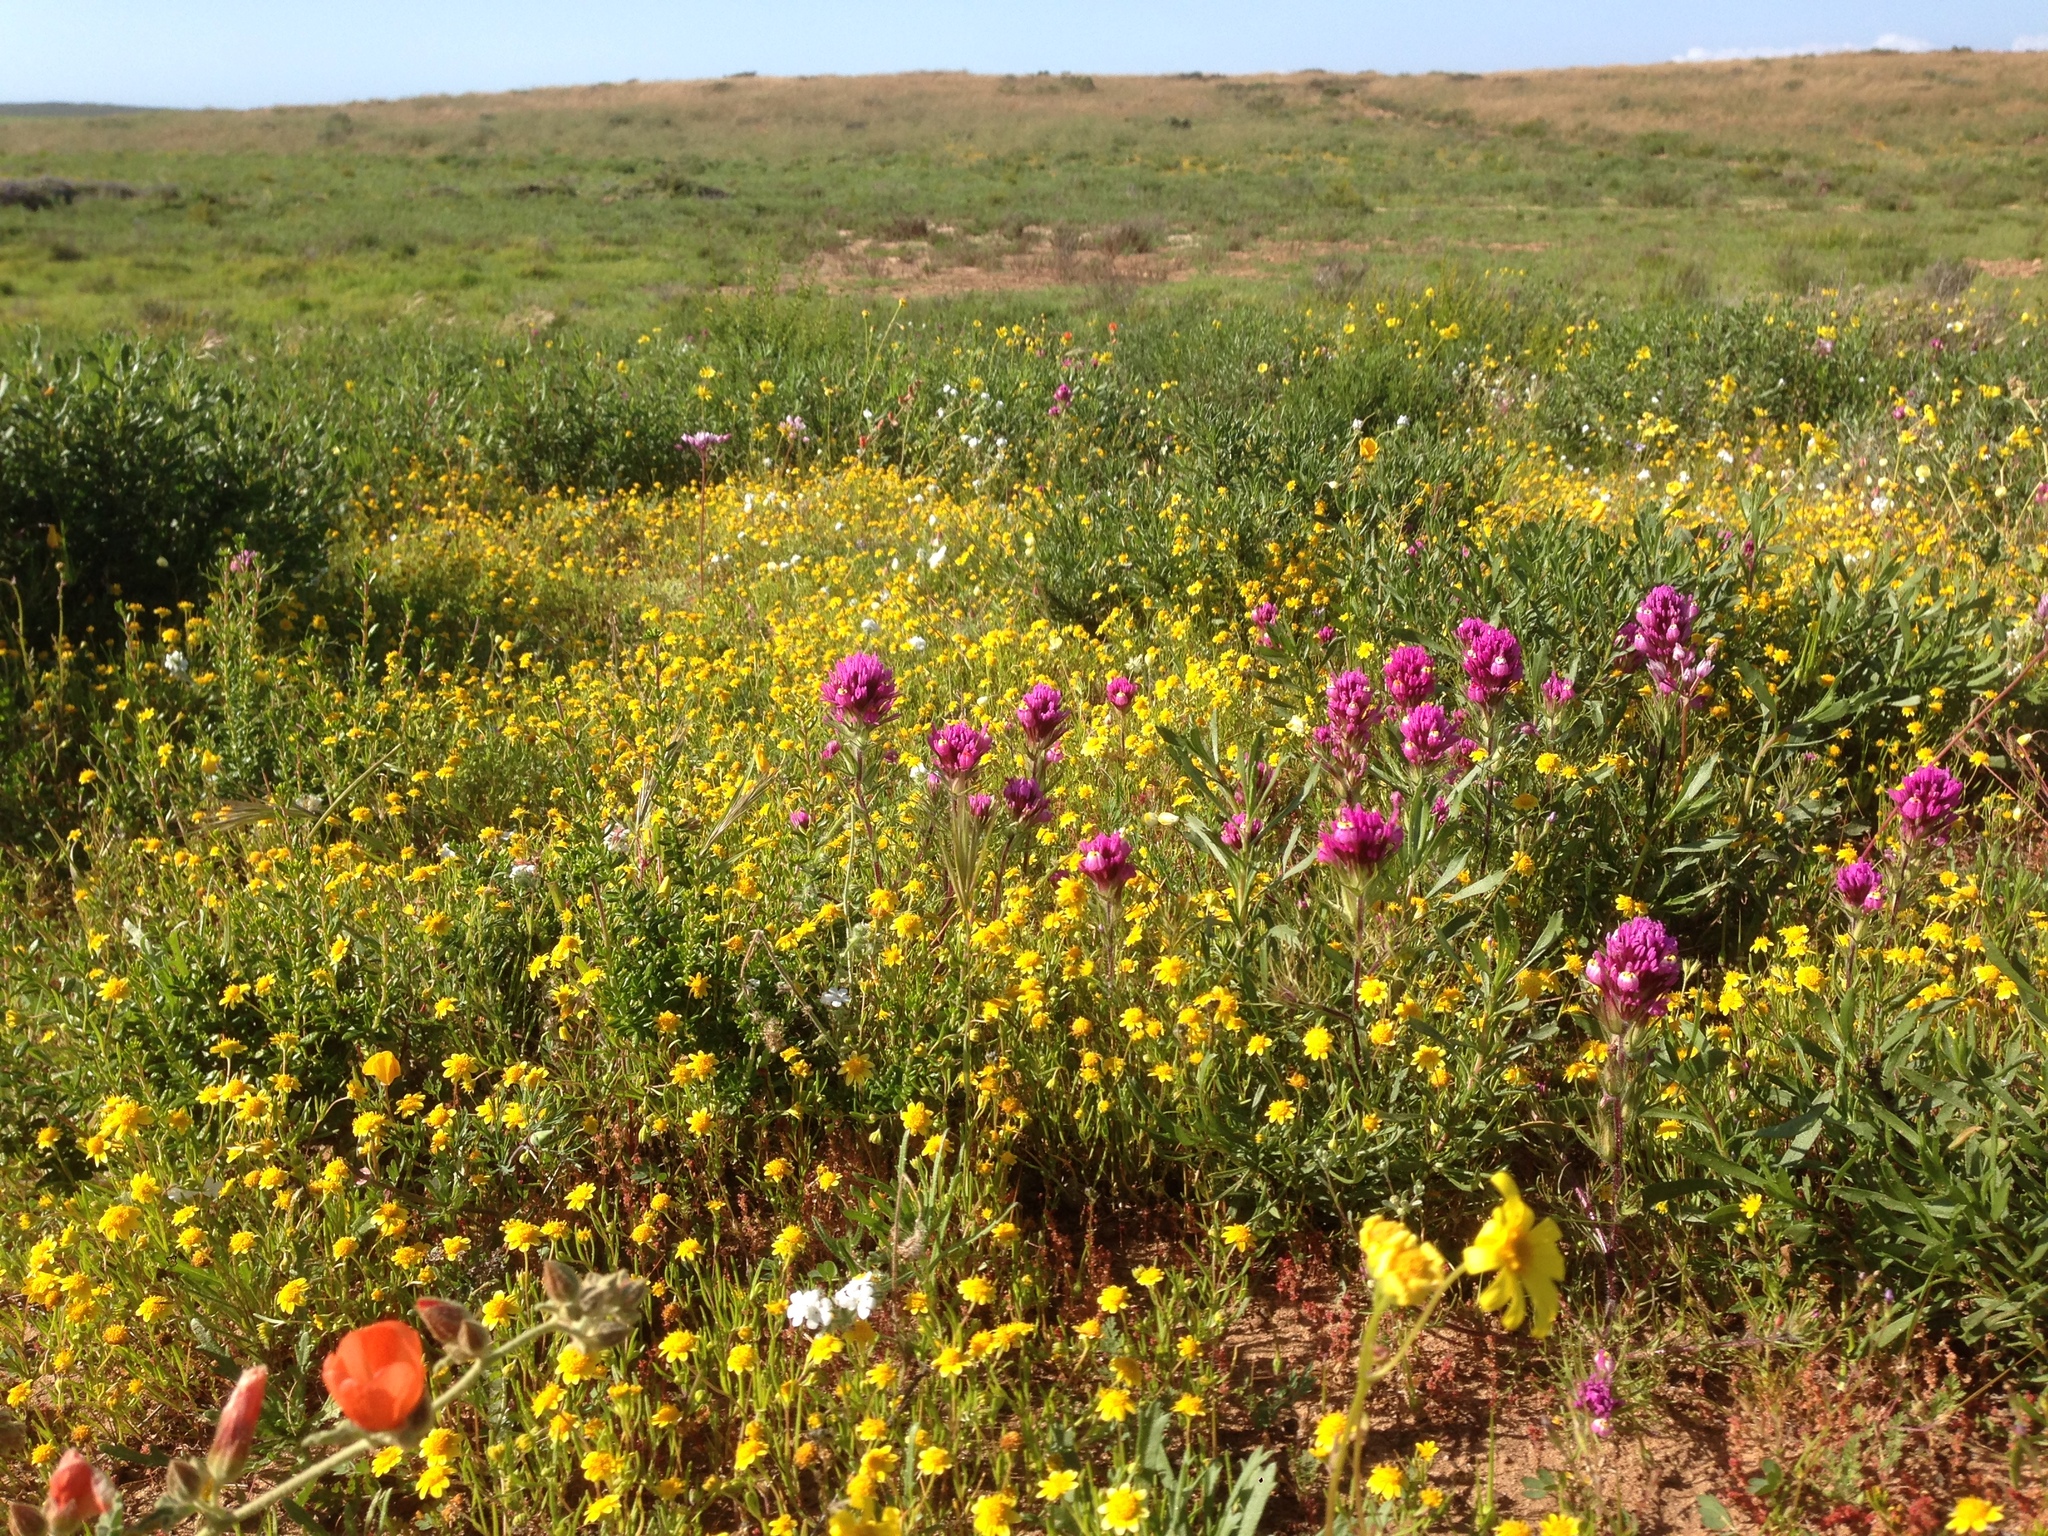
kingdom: Plantae
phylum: Tracheophyta
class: Magnoliopsida
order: Lamiales
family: Orobanchaceae
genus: Castilleja
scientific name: Castilleja exserta
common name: Purple owl-clover
